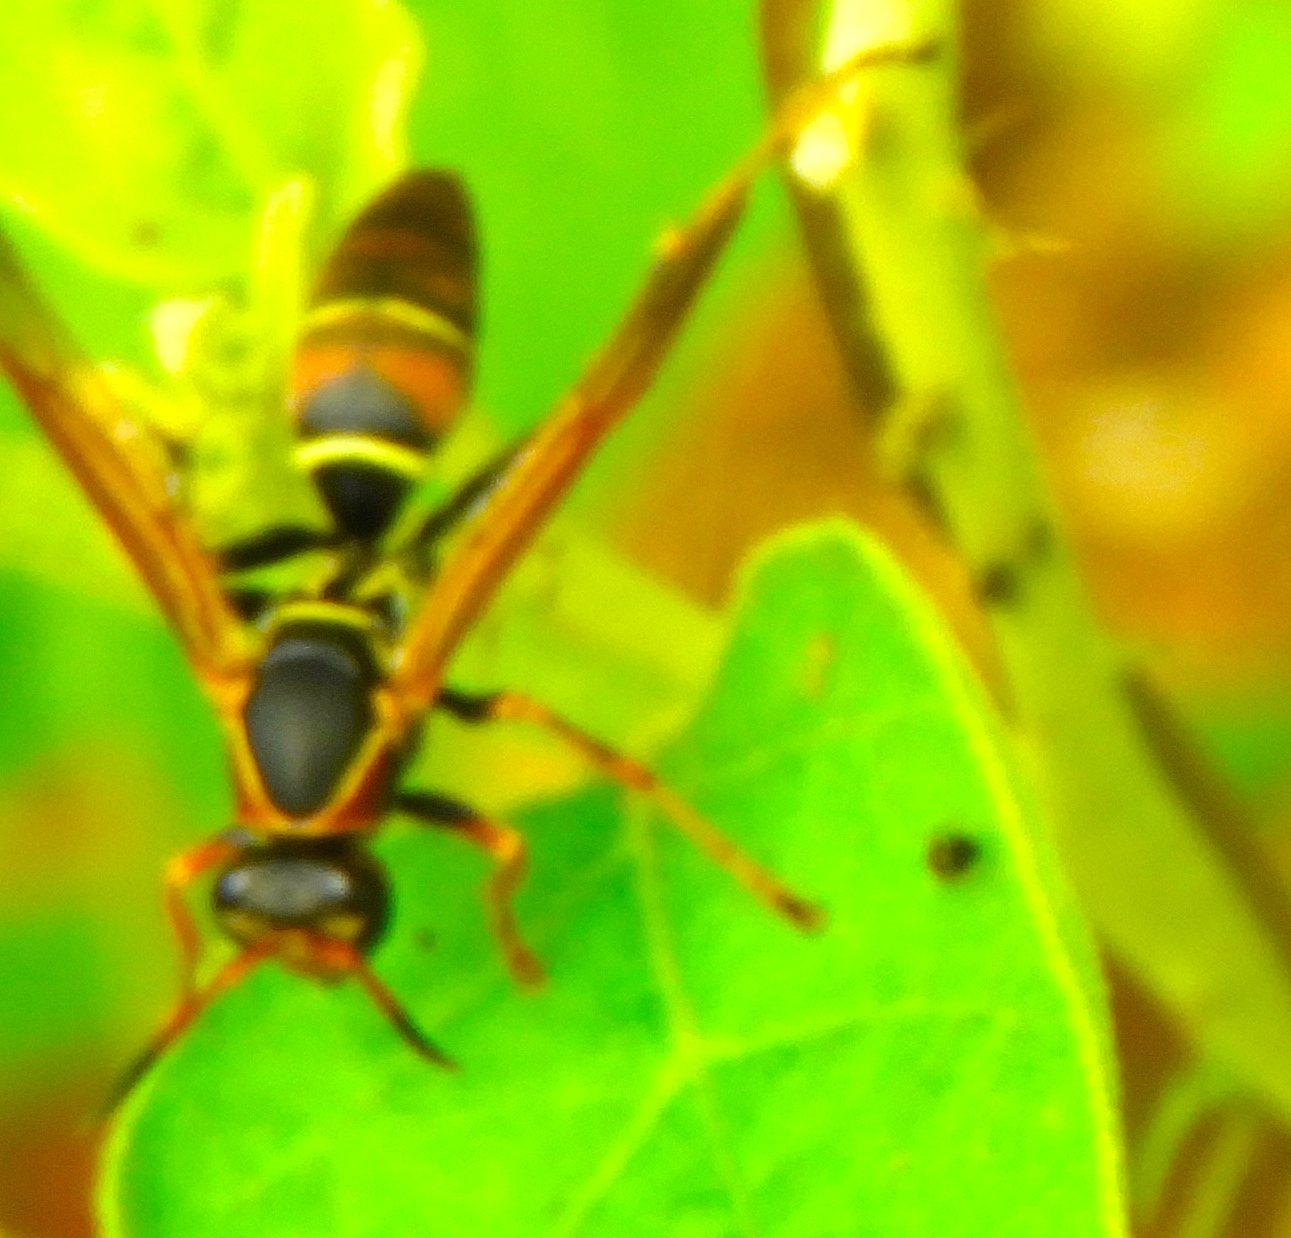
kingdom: Animalia
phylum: Arthropoda
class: Insecta
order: Hymenoptera
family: Eumenidae
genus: Polistes
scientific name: Polistes pacificus
